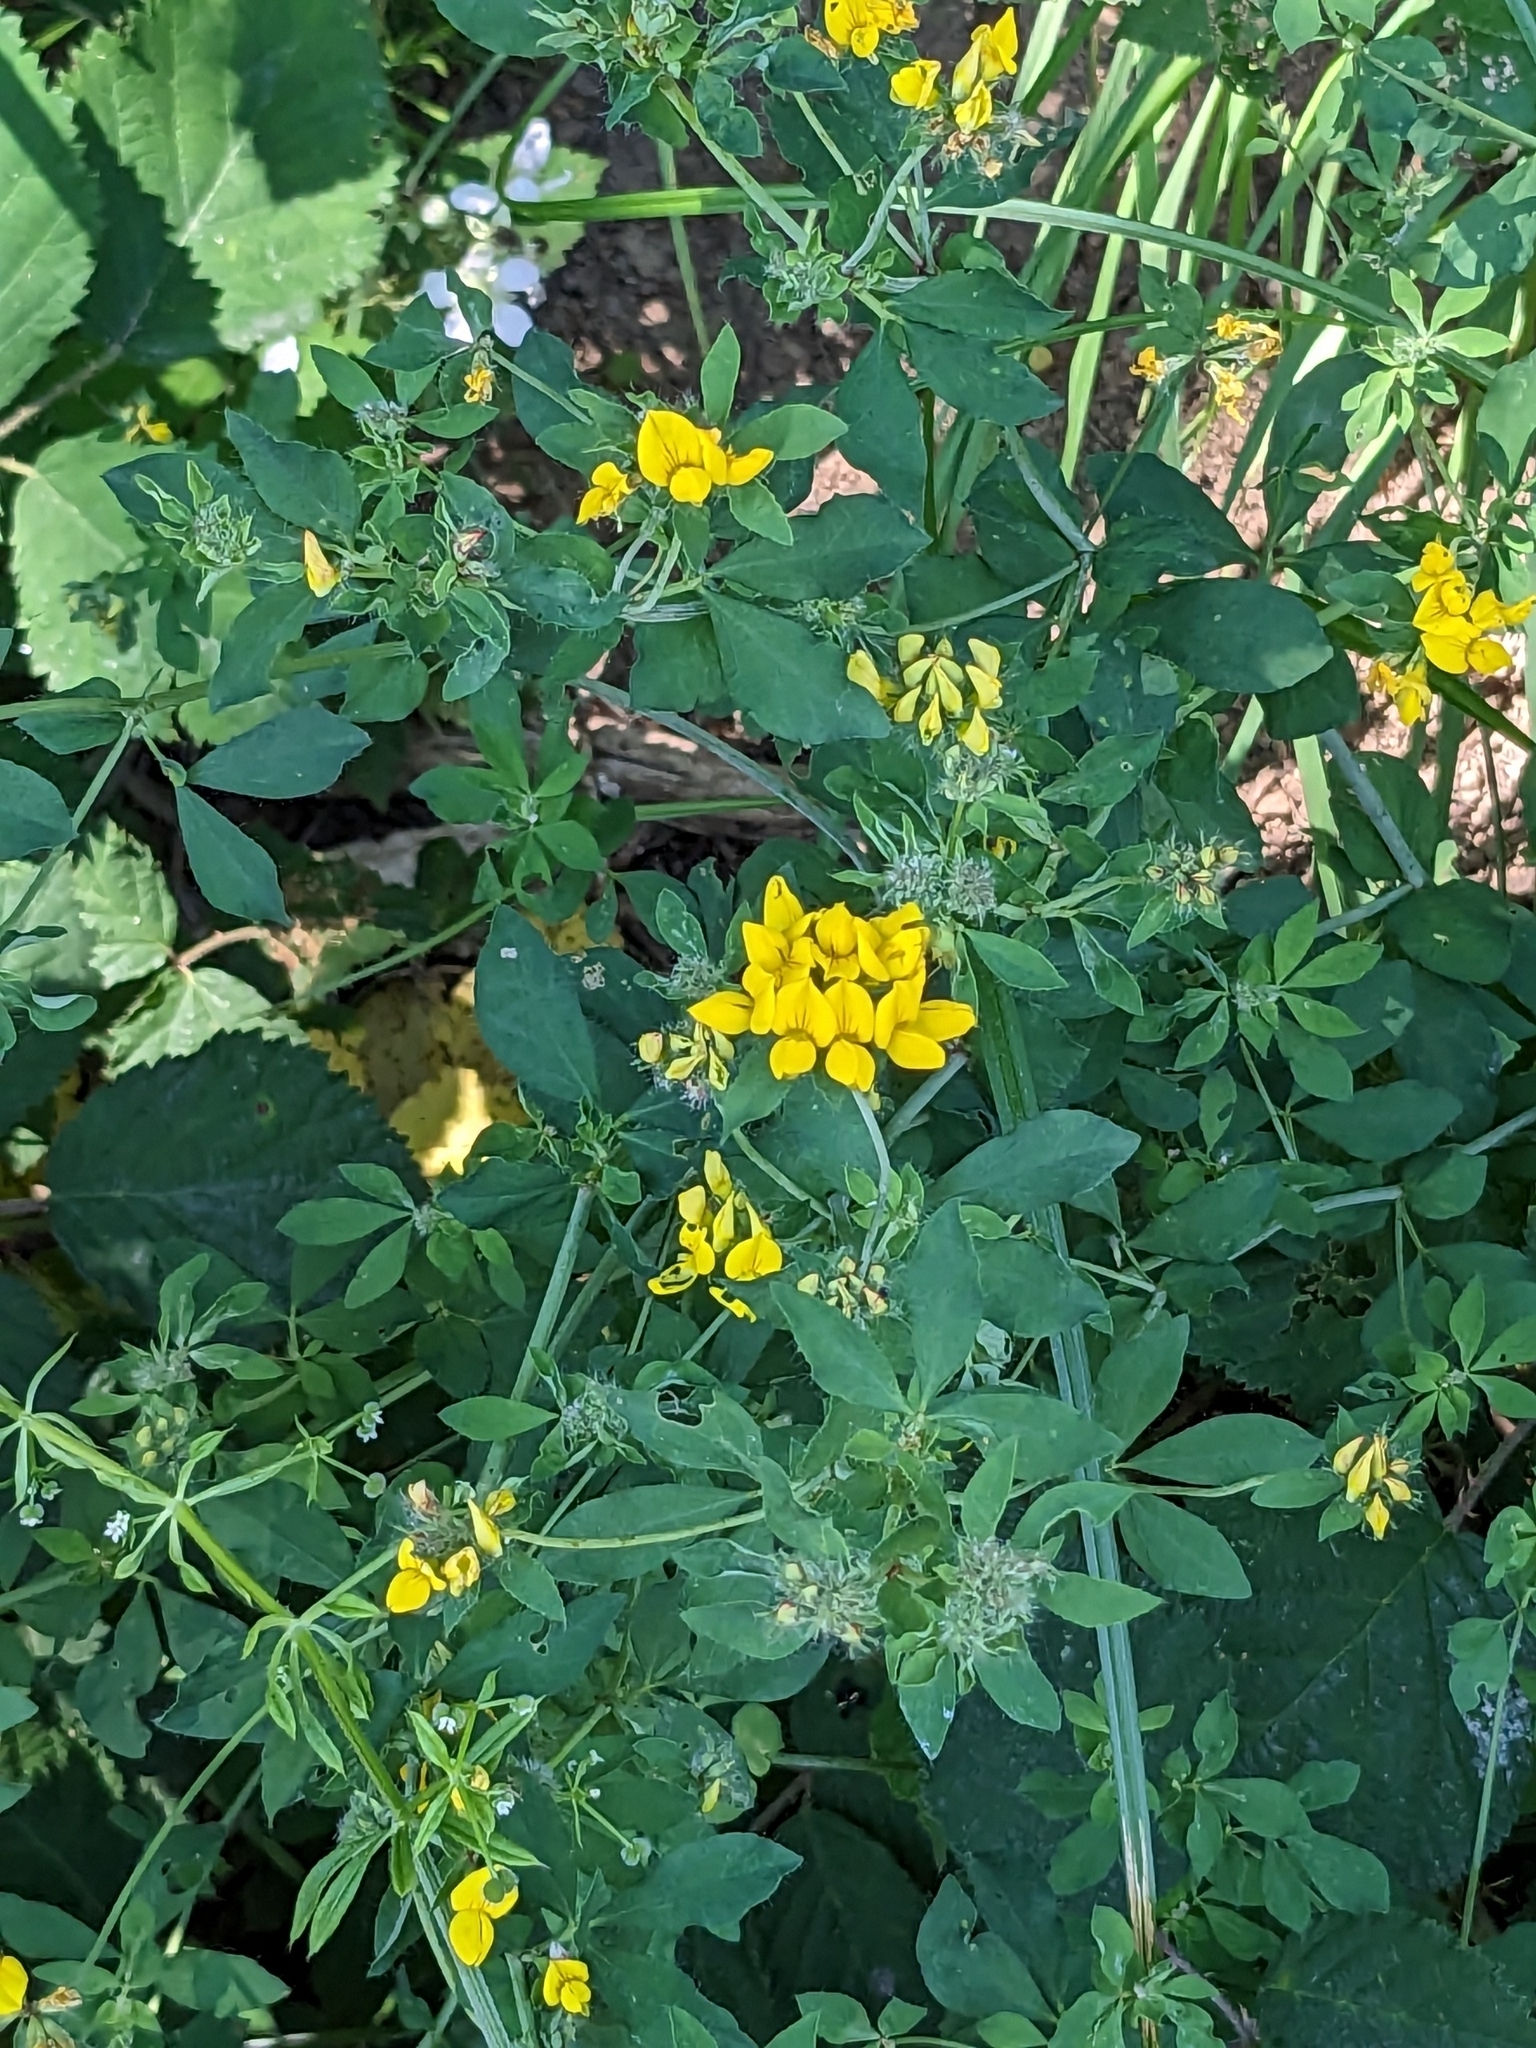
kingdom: Plantae
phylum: Tracheophyta
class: Magnoliopsida
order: Fabales
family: Fabaceae
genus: Lotus
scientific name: Lotus pedunculatus
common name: Greater birdsfoot-trefoil
